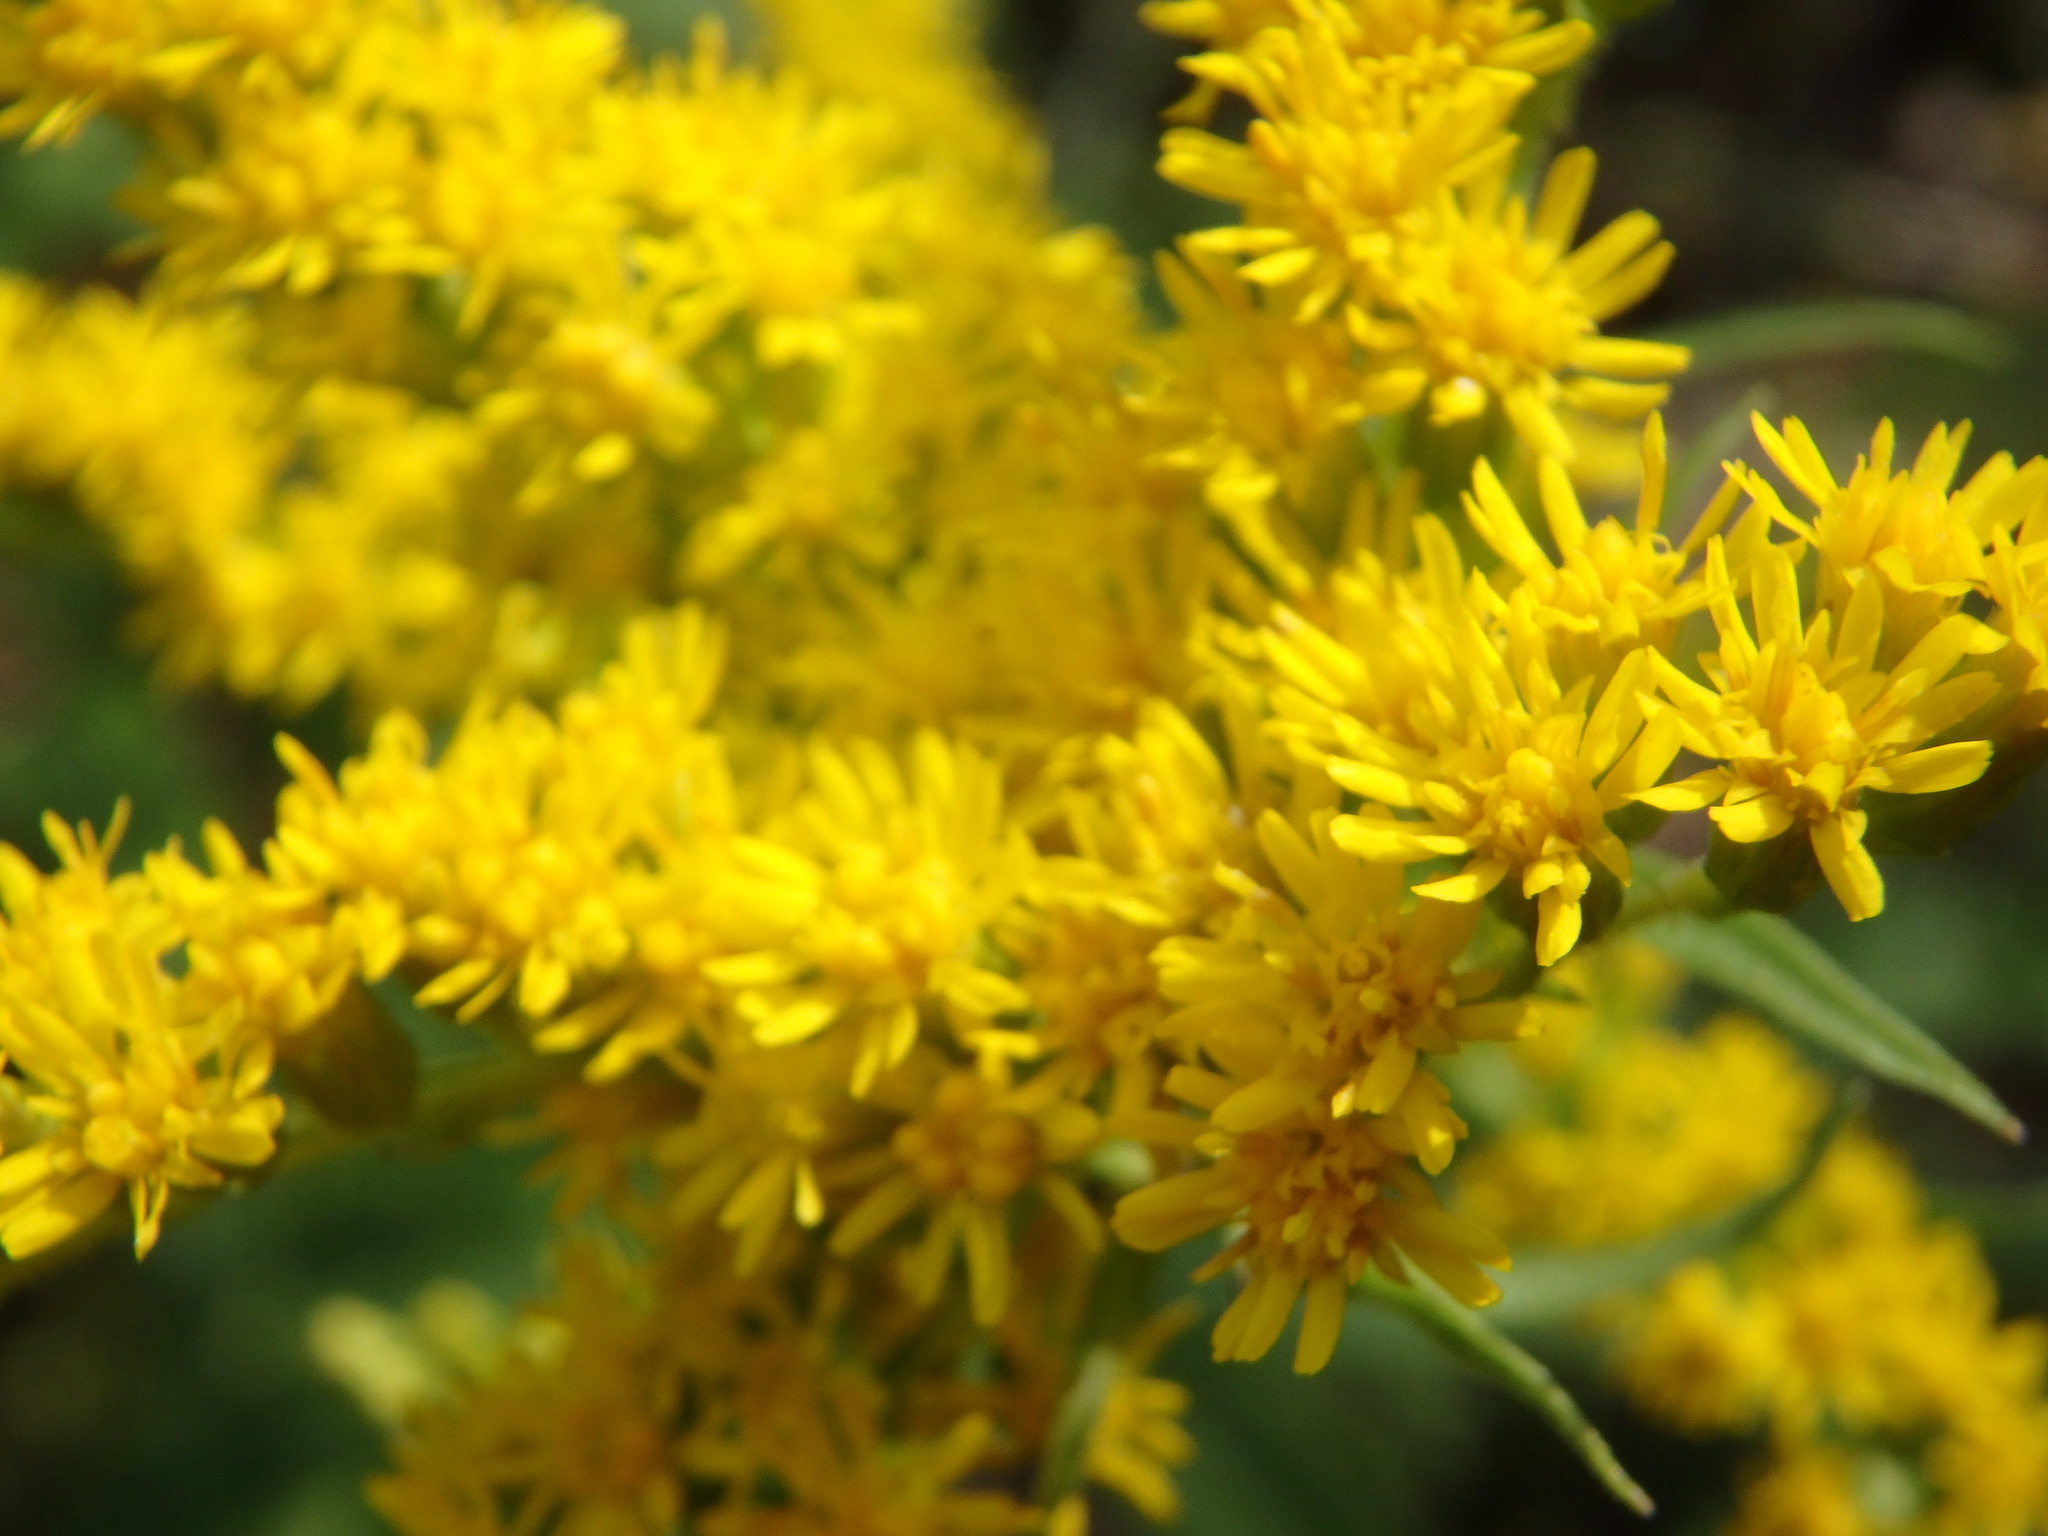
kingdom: Plantae
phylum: Tracheophyta
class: Magnoliopsida
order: Asterales
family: Asteraceae
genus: Solidago
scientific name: Solidago juncea
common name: Early goldenrod
